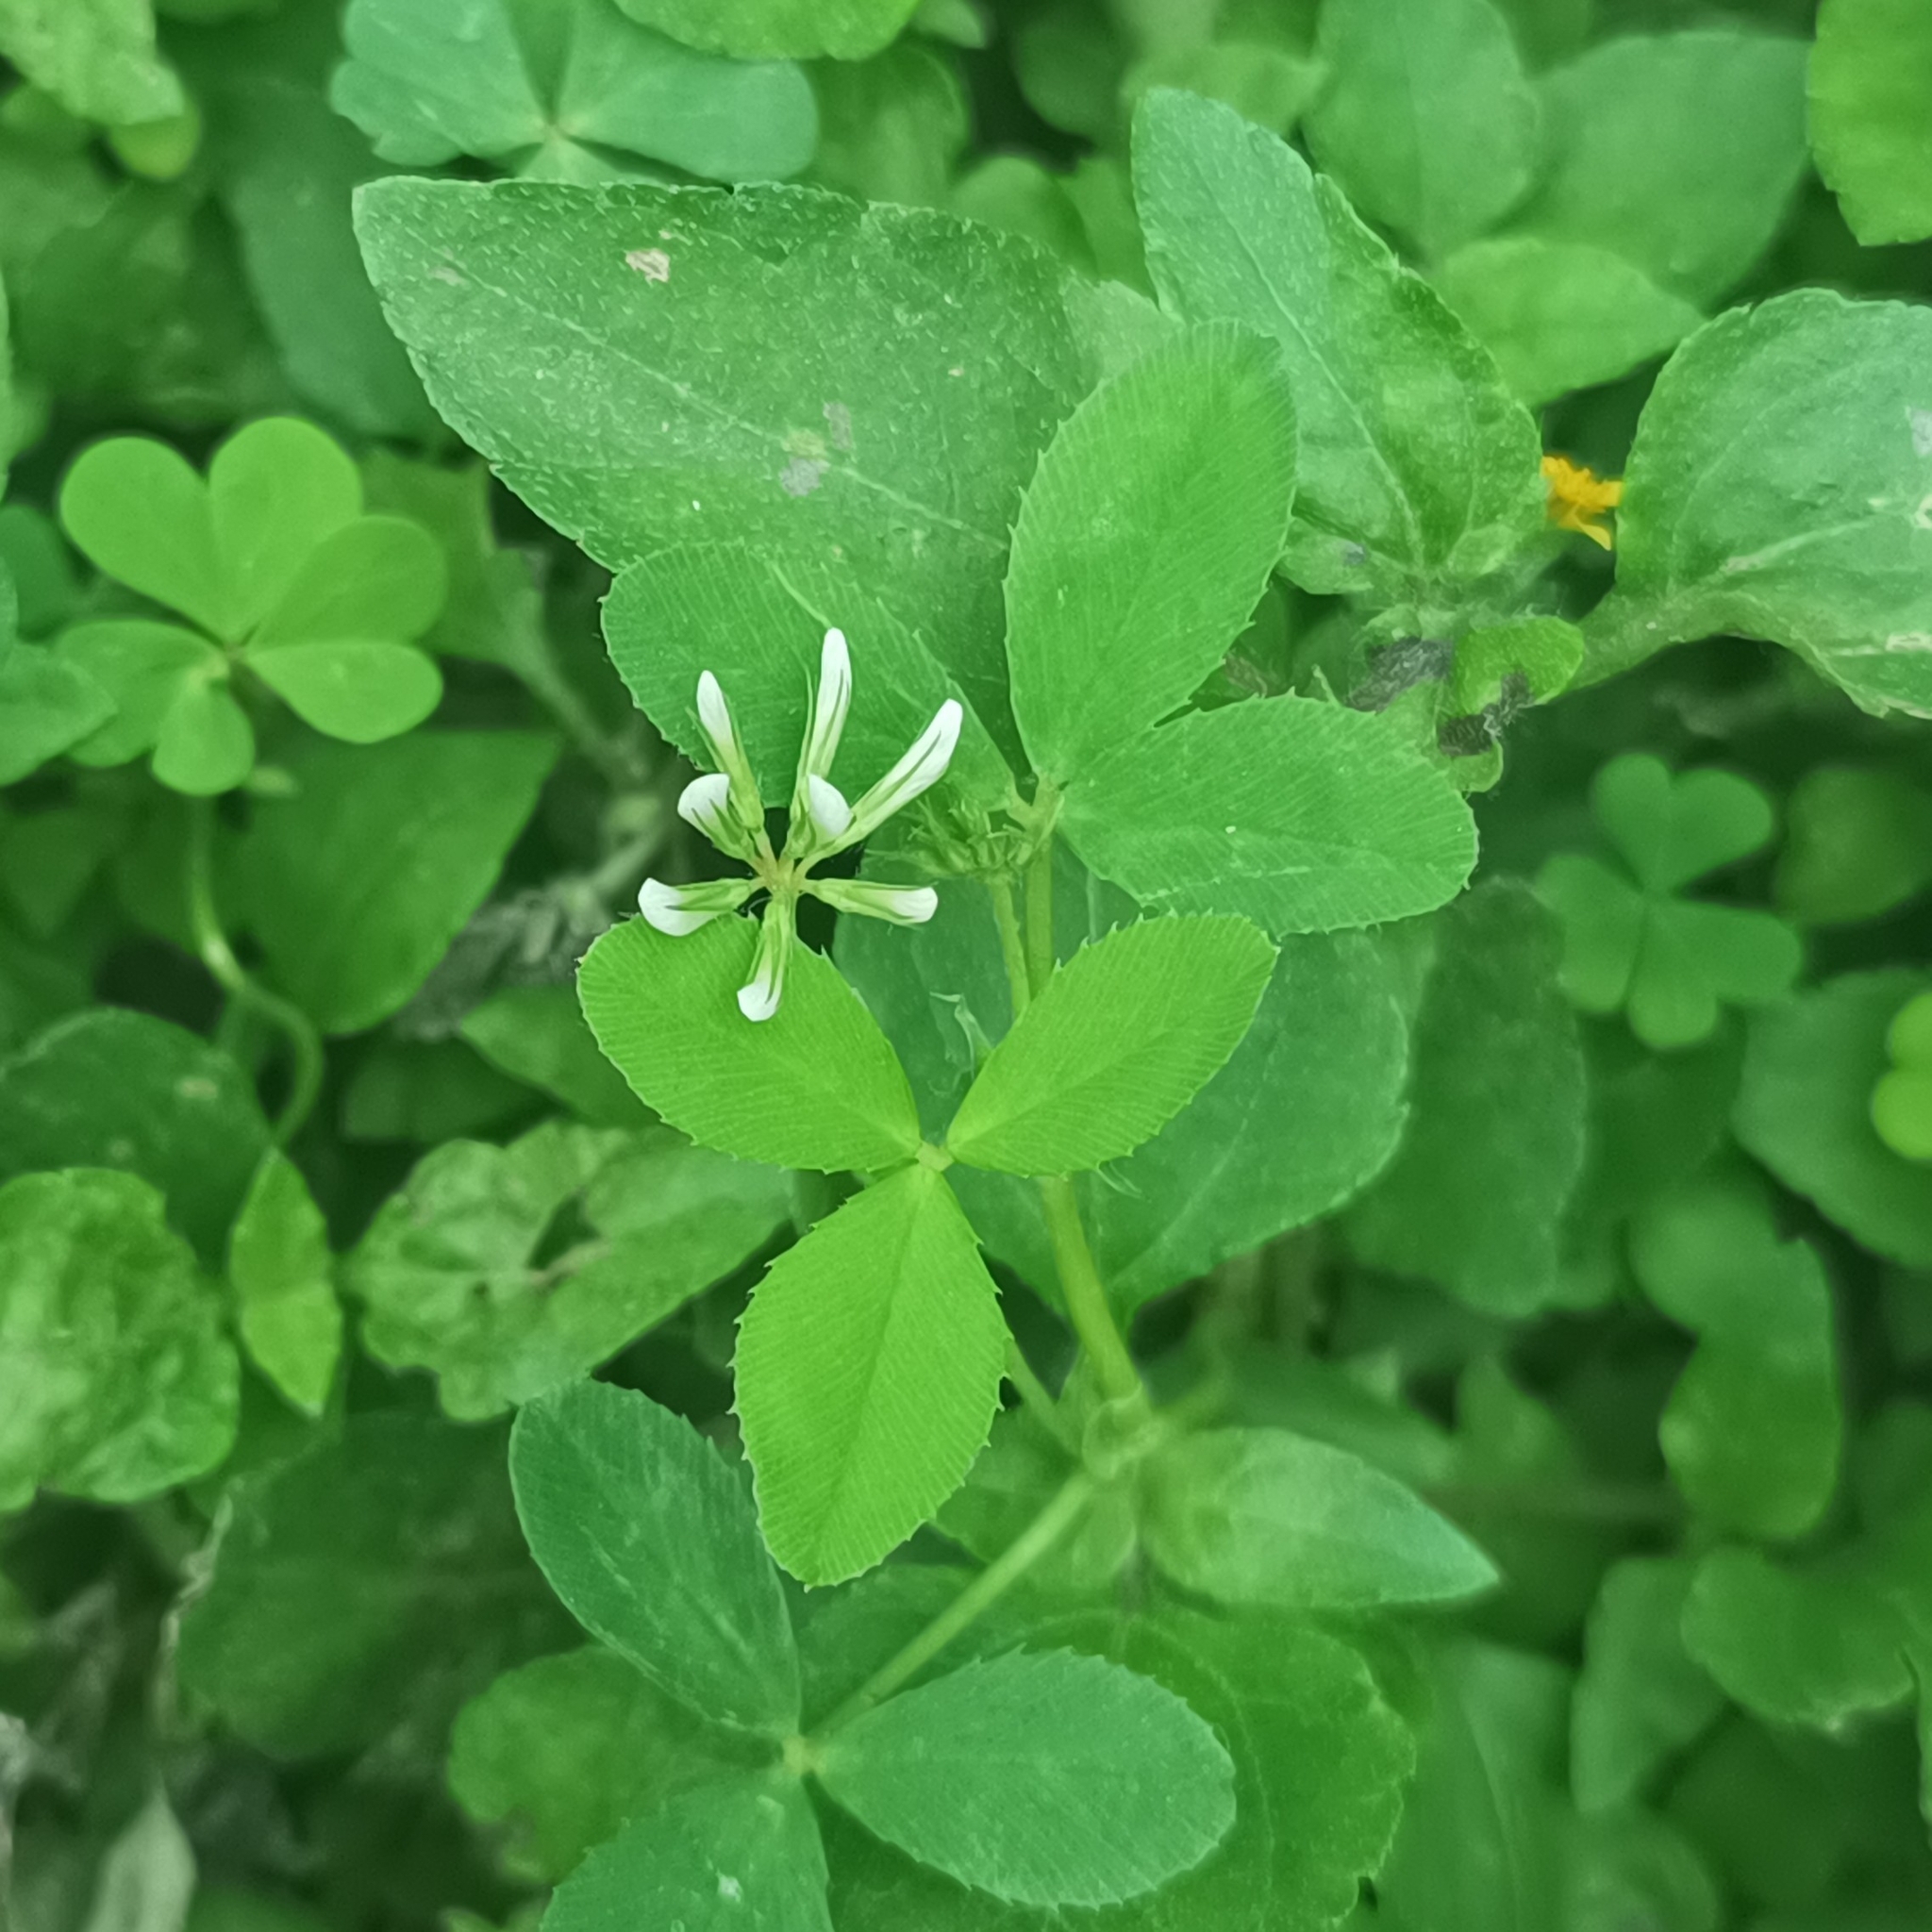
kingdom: Plantae
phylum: Tracheophyta
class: Magnoliopsida
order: Fabales
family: Fabaceae
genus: Trifolium
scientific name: Trifolium amabile
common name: Aztec clover
